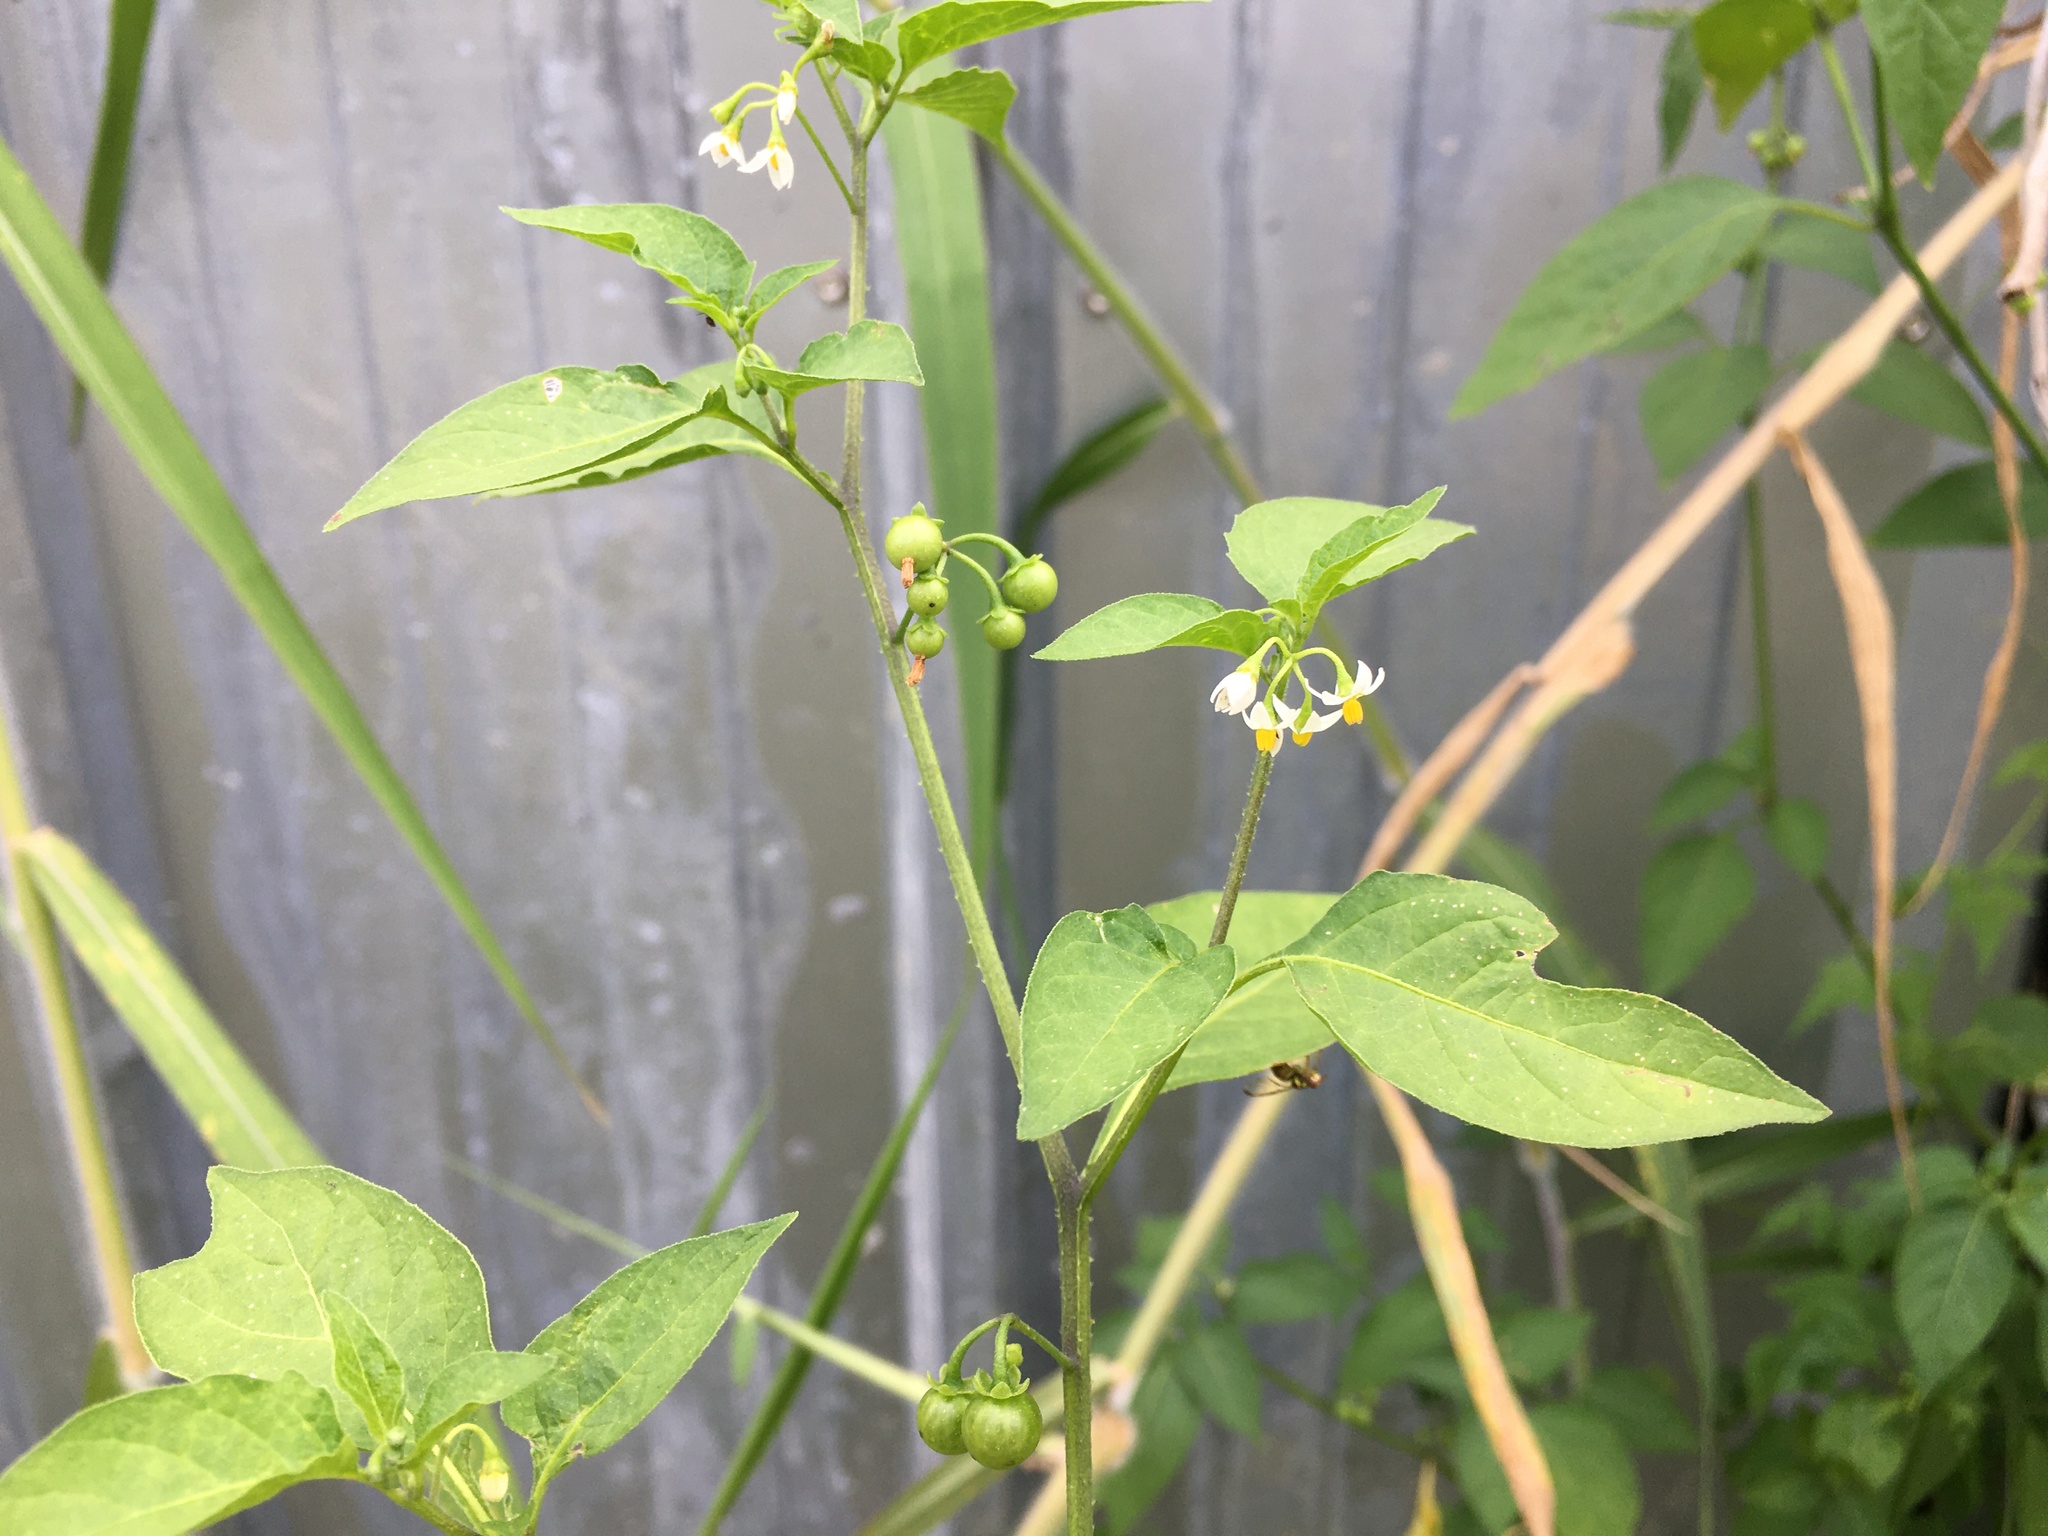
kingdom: Plantae
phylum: Tracheophyta
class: Magnoliopsida
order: Solanales
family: Solanaceae
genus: Solanum
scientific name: Solanum americanum
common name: American black nightshade
